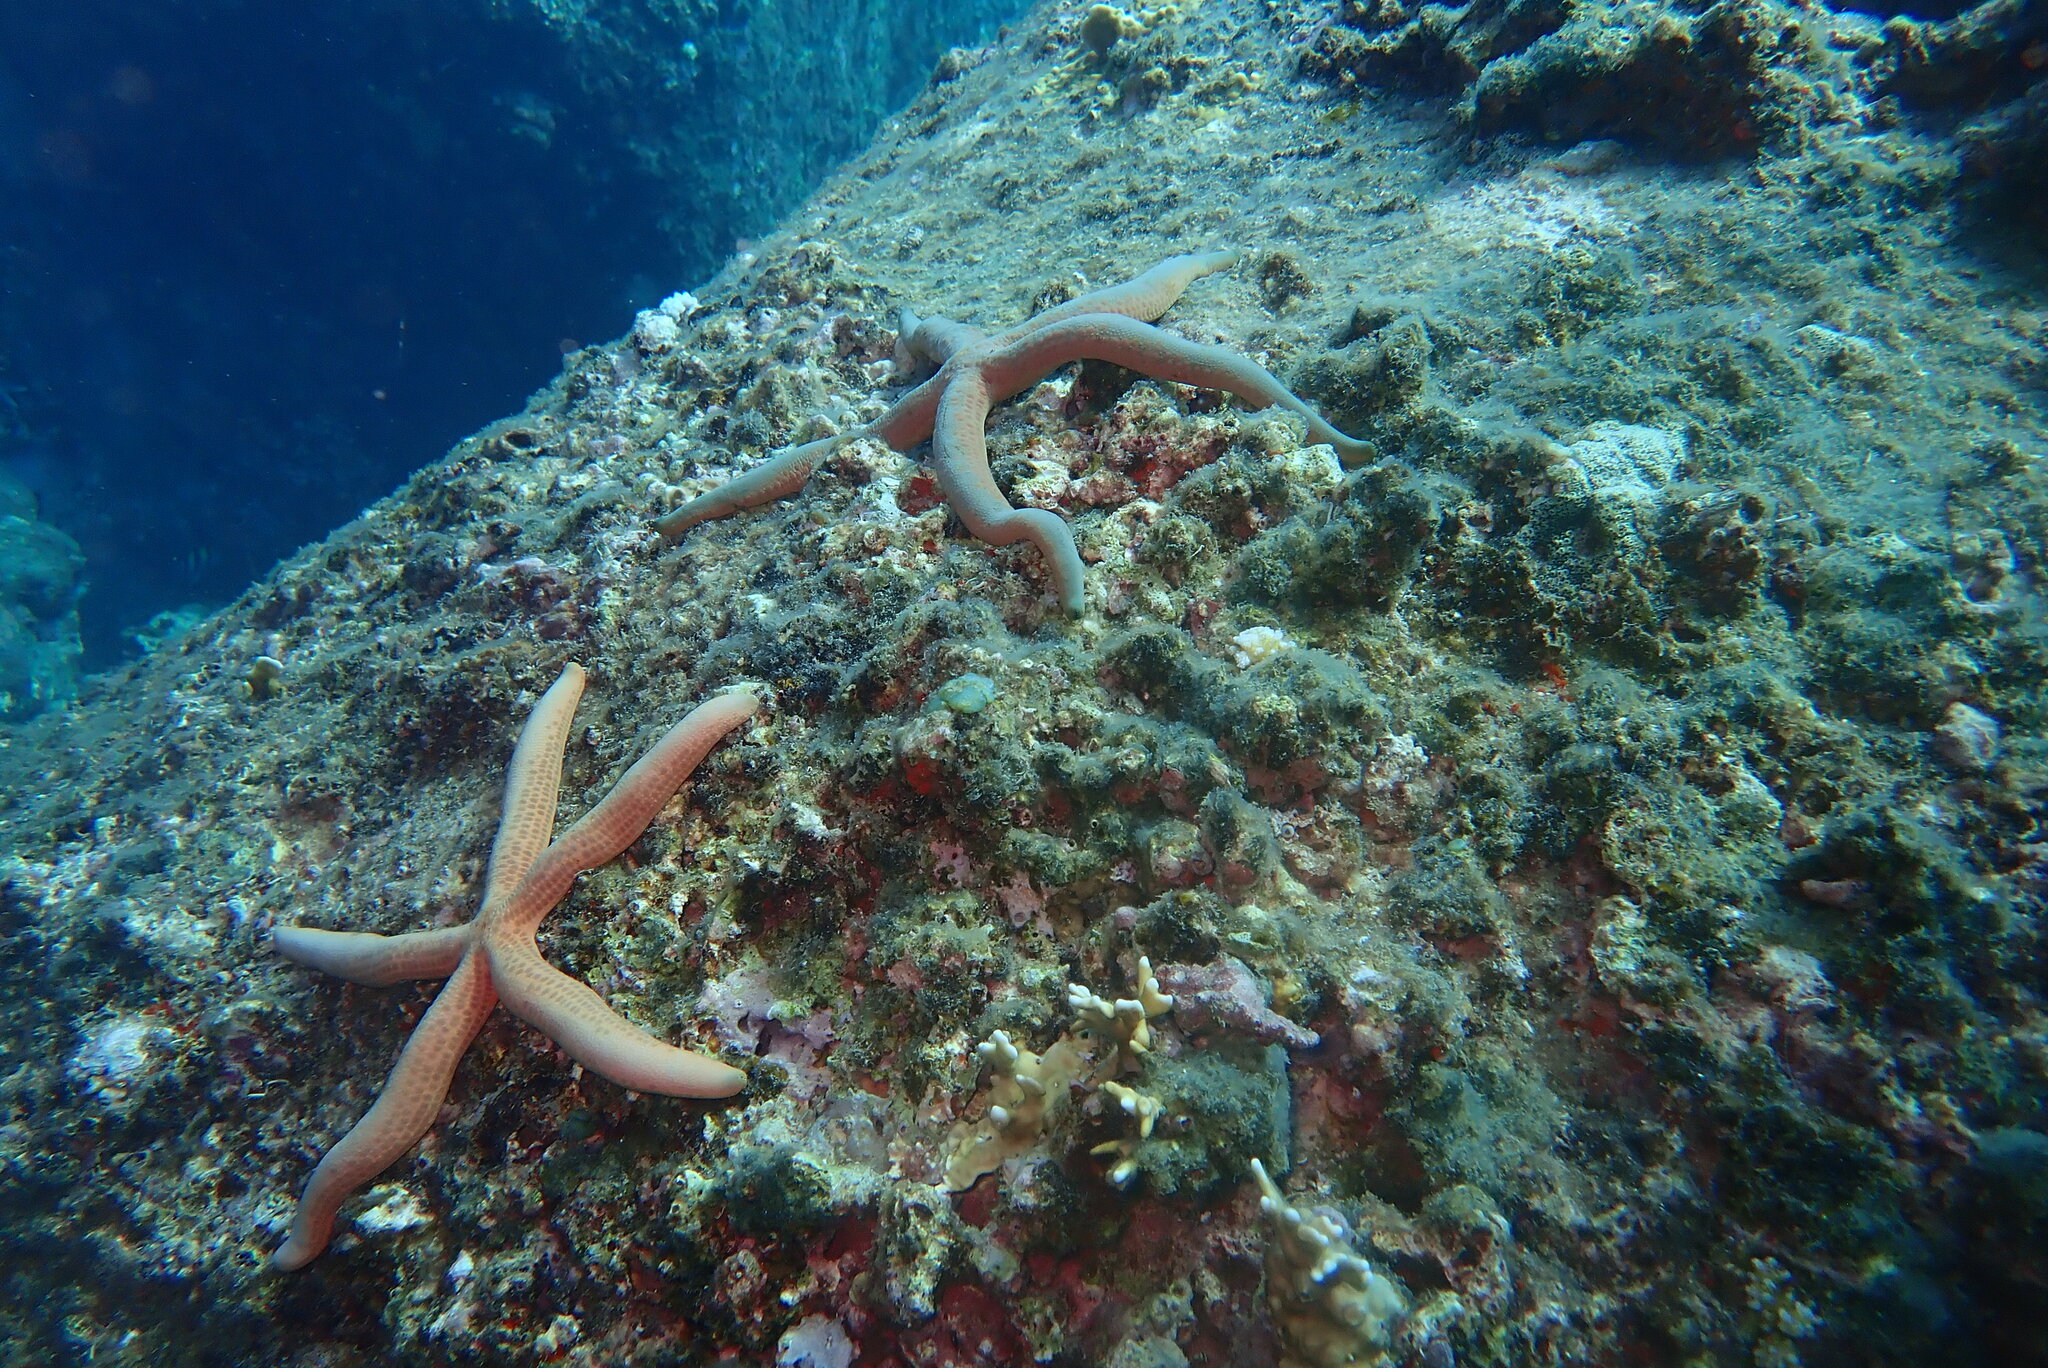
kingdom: Animalia
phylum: Echinodermata
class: Asteroidea
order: Valvatida
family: Ophidiasteridae
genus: Linckia
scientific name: Linckia laevigata
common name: Azure sea star
